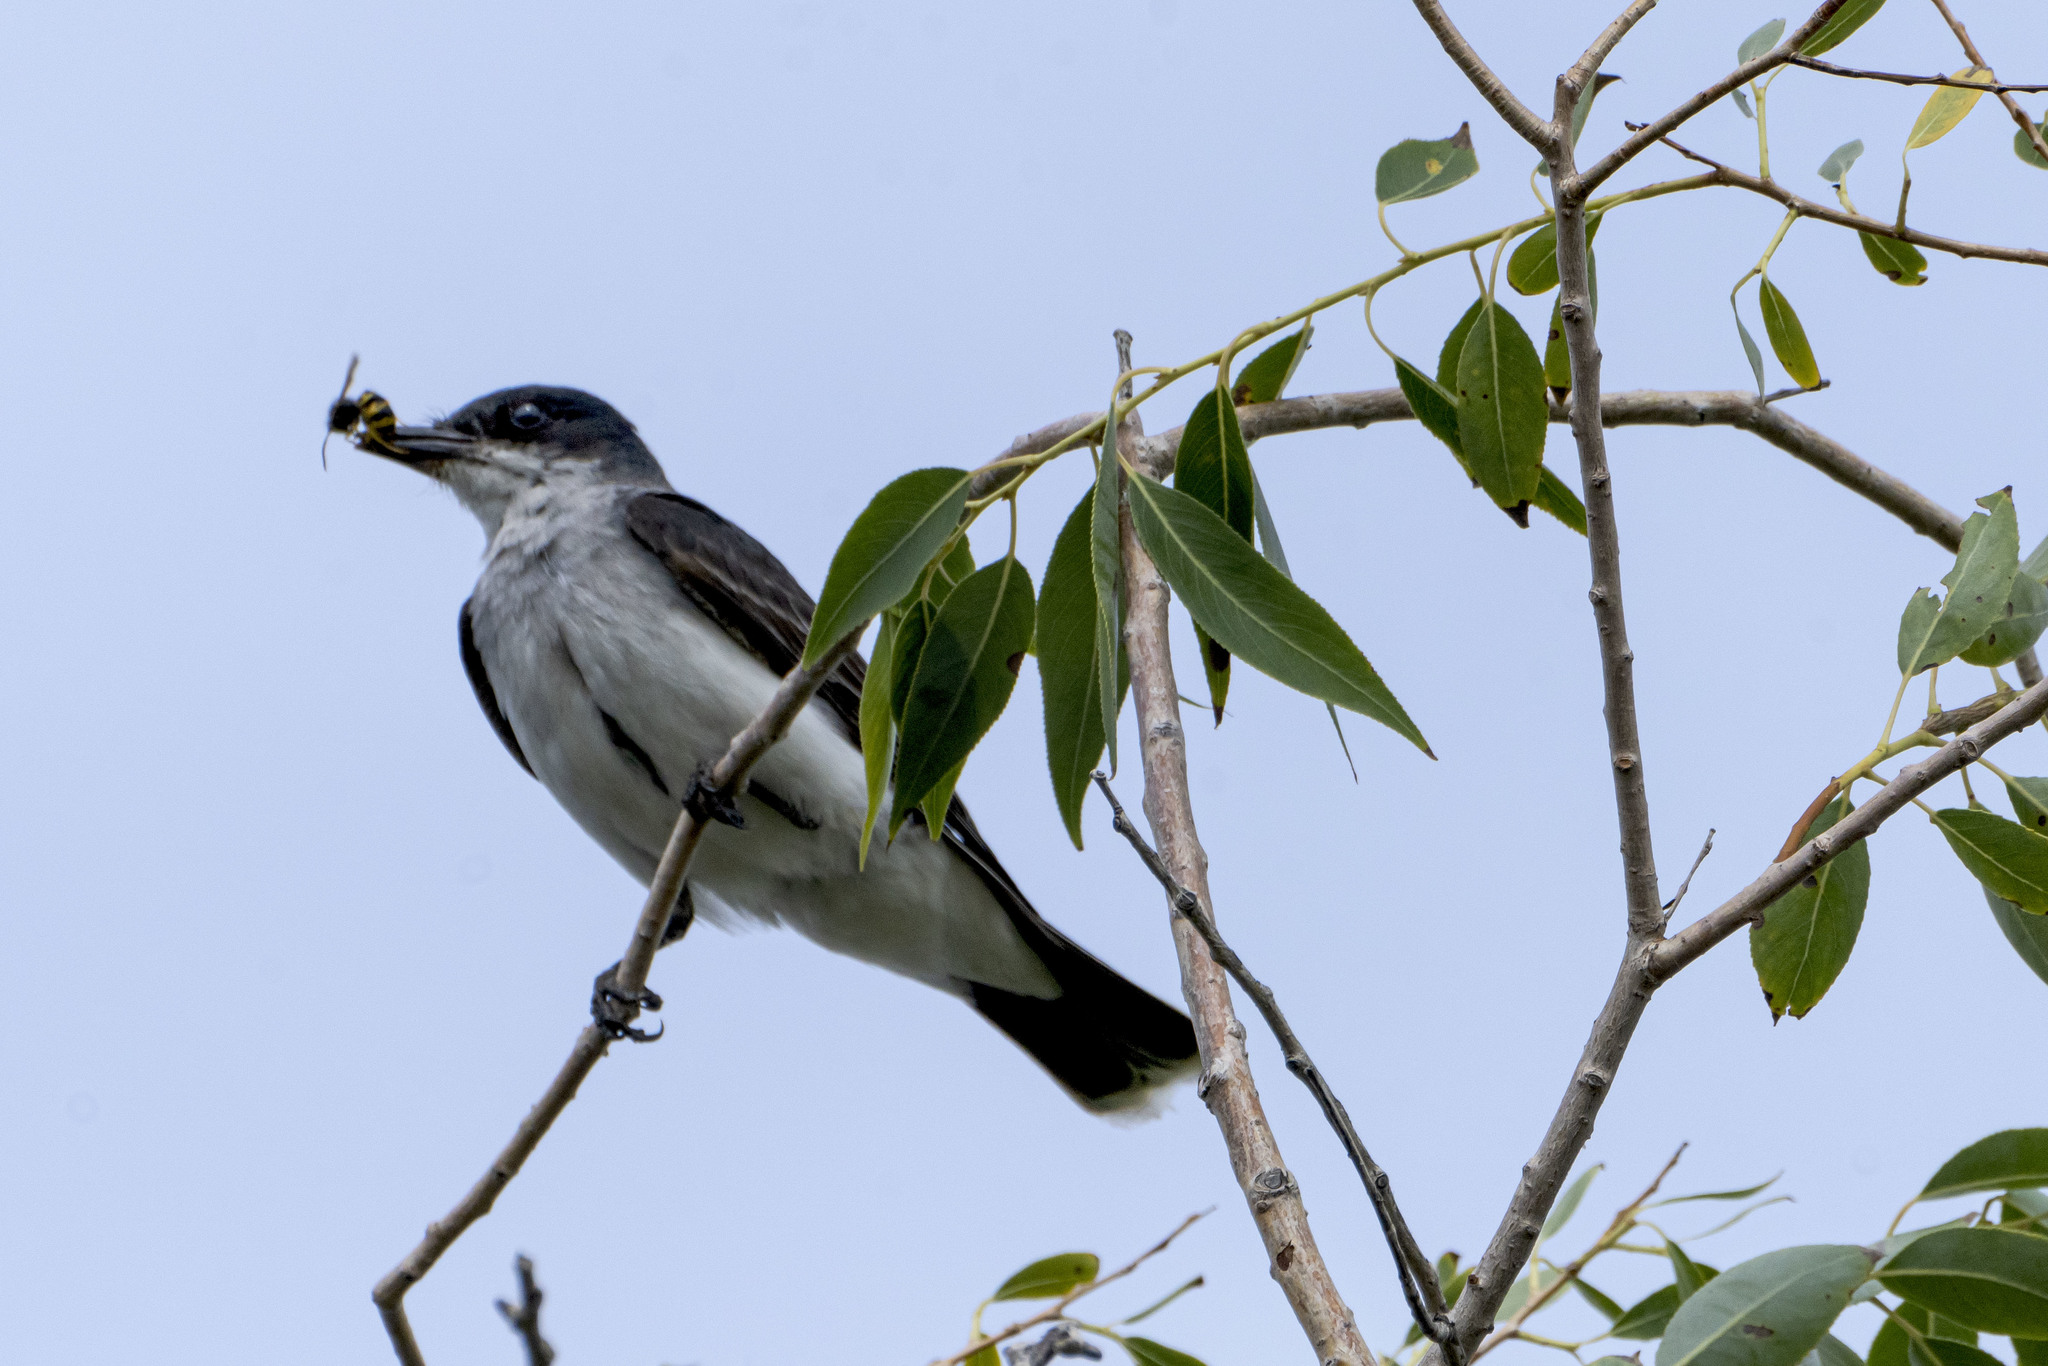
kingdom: Animalia
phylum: Chordata
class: Aves
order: Passeriformes
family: Tyrannidae
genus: Tyrannus
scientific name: Tyrannus tyrannus
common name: Eastern kingbird
